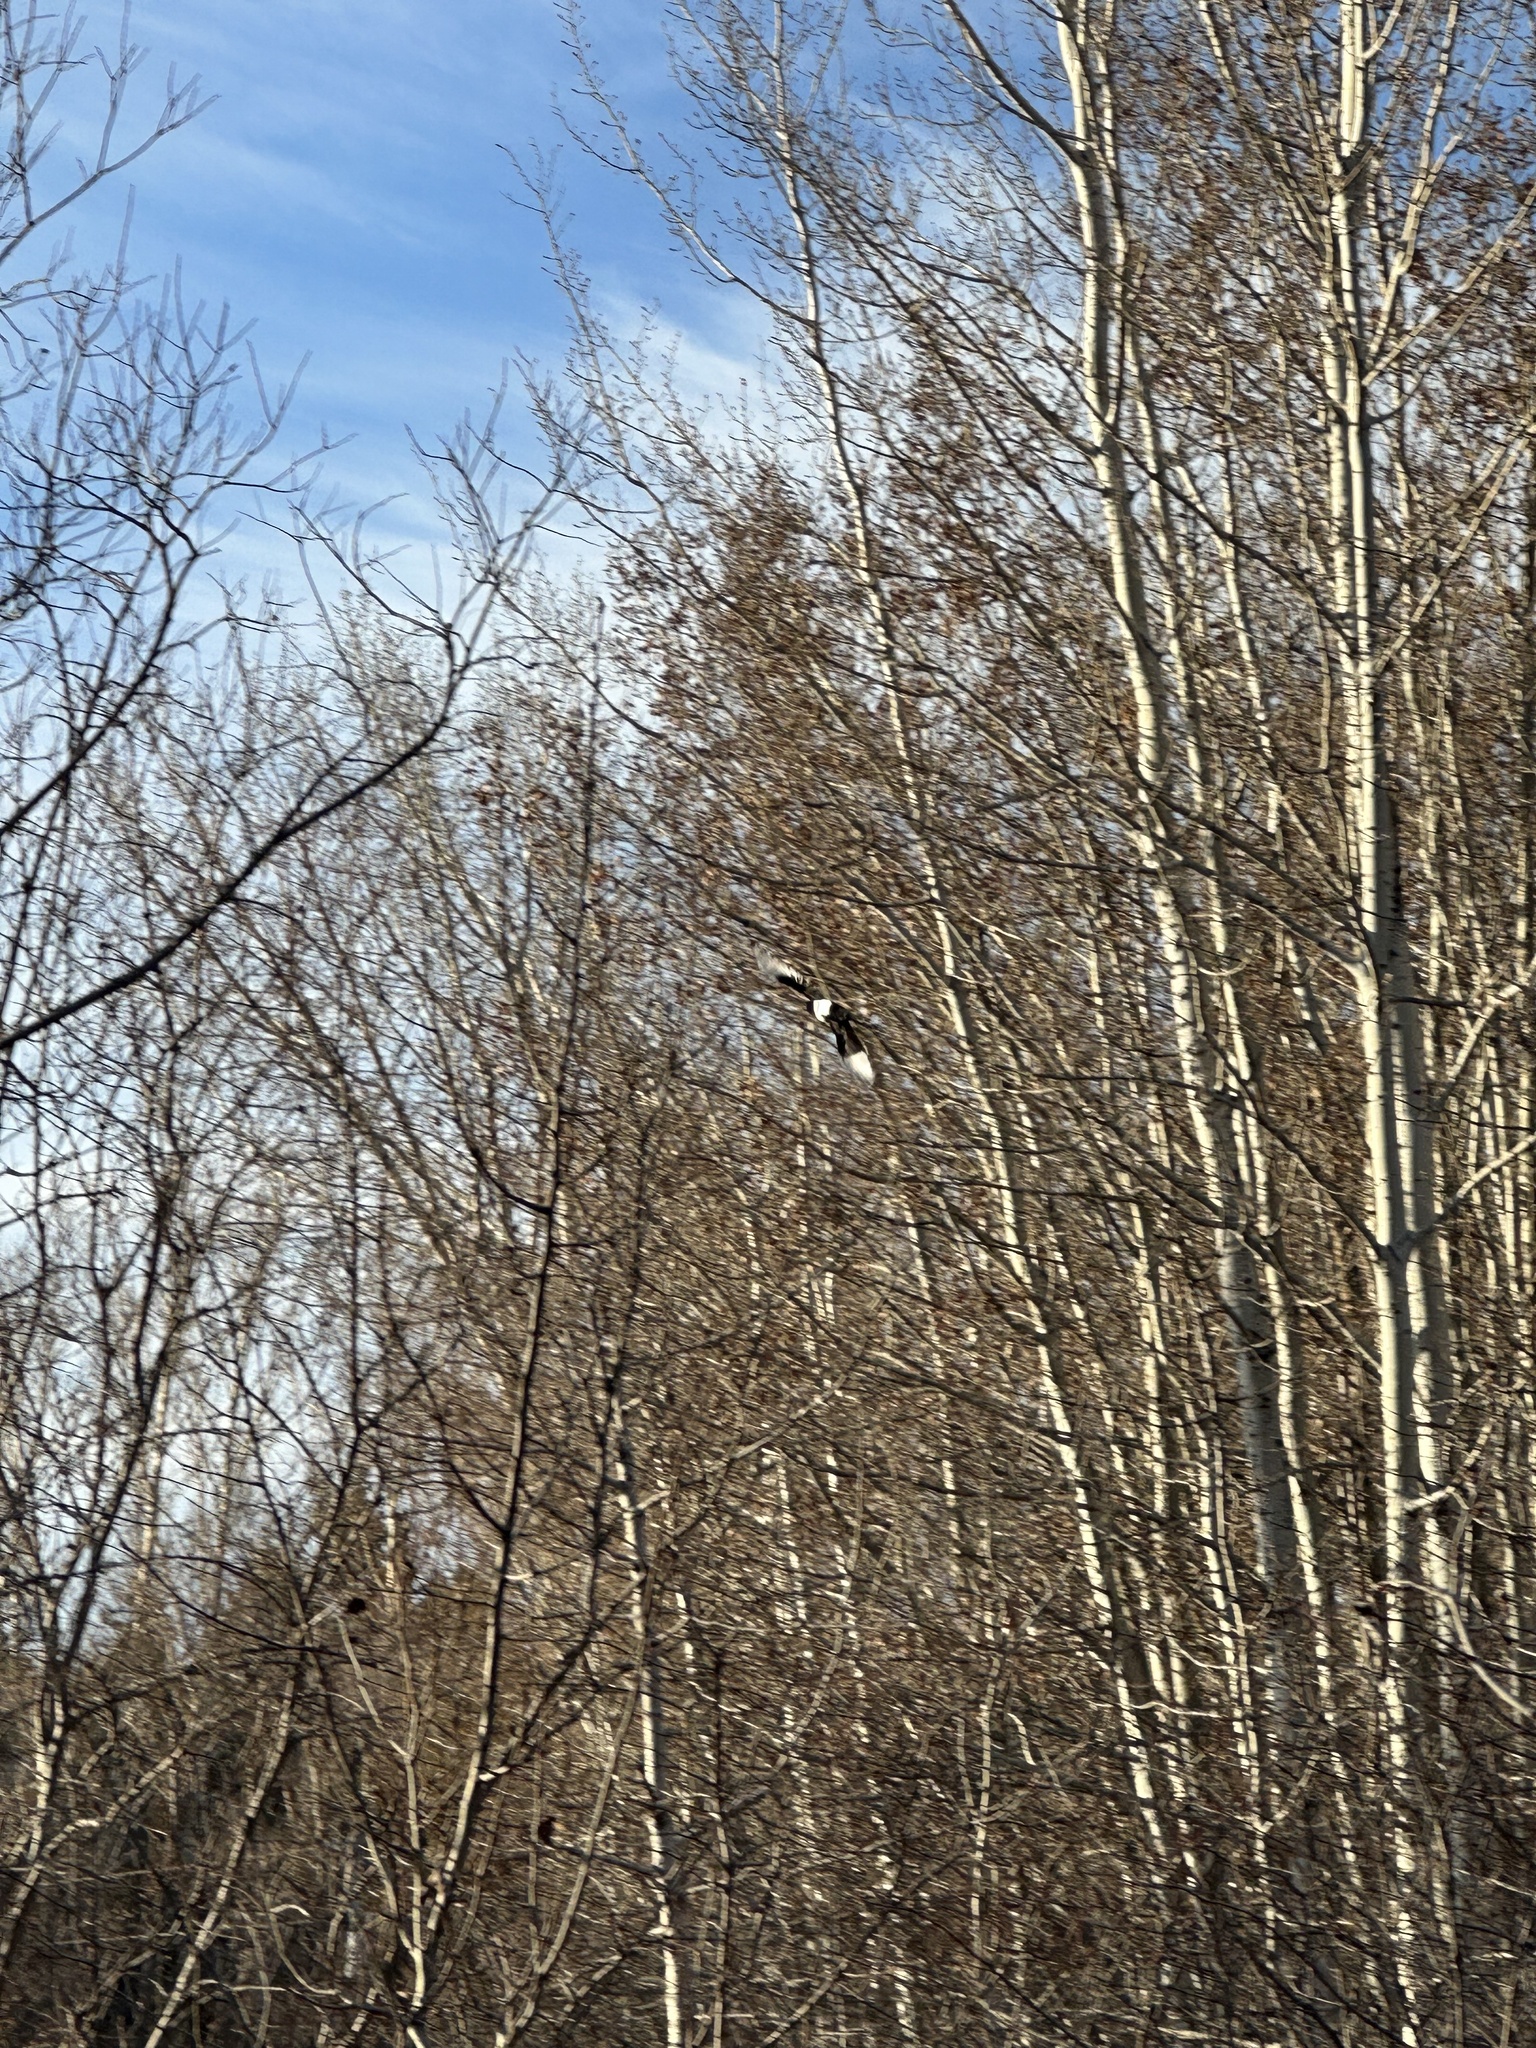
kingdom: Animalia
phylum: Chordata
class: Aves
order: Passeriformes
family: Corvidae
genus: Pica
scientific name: Pica hudsonia
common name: Black-billed magpie
